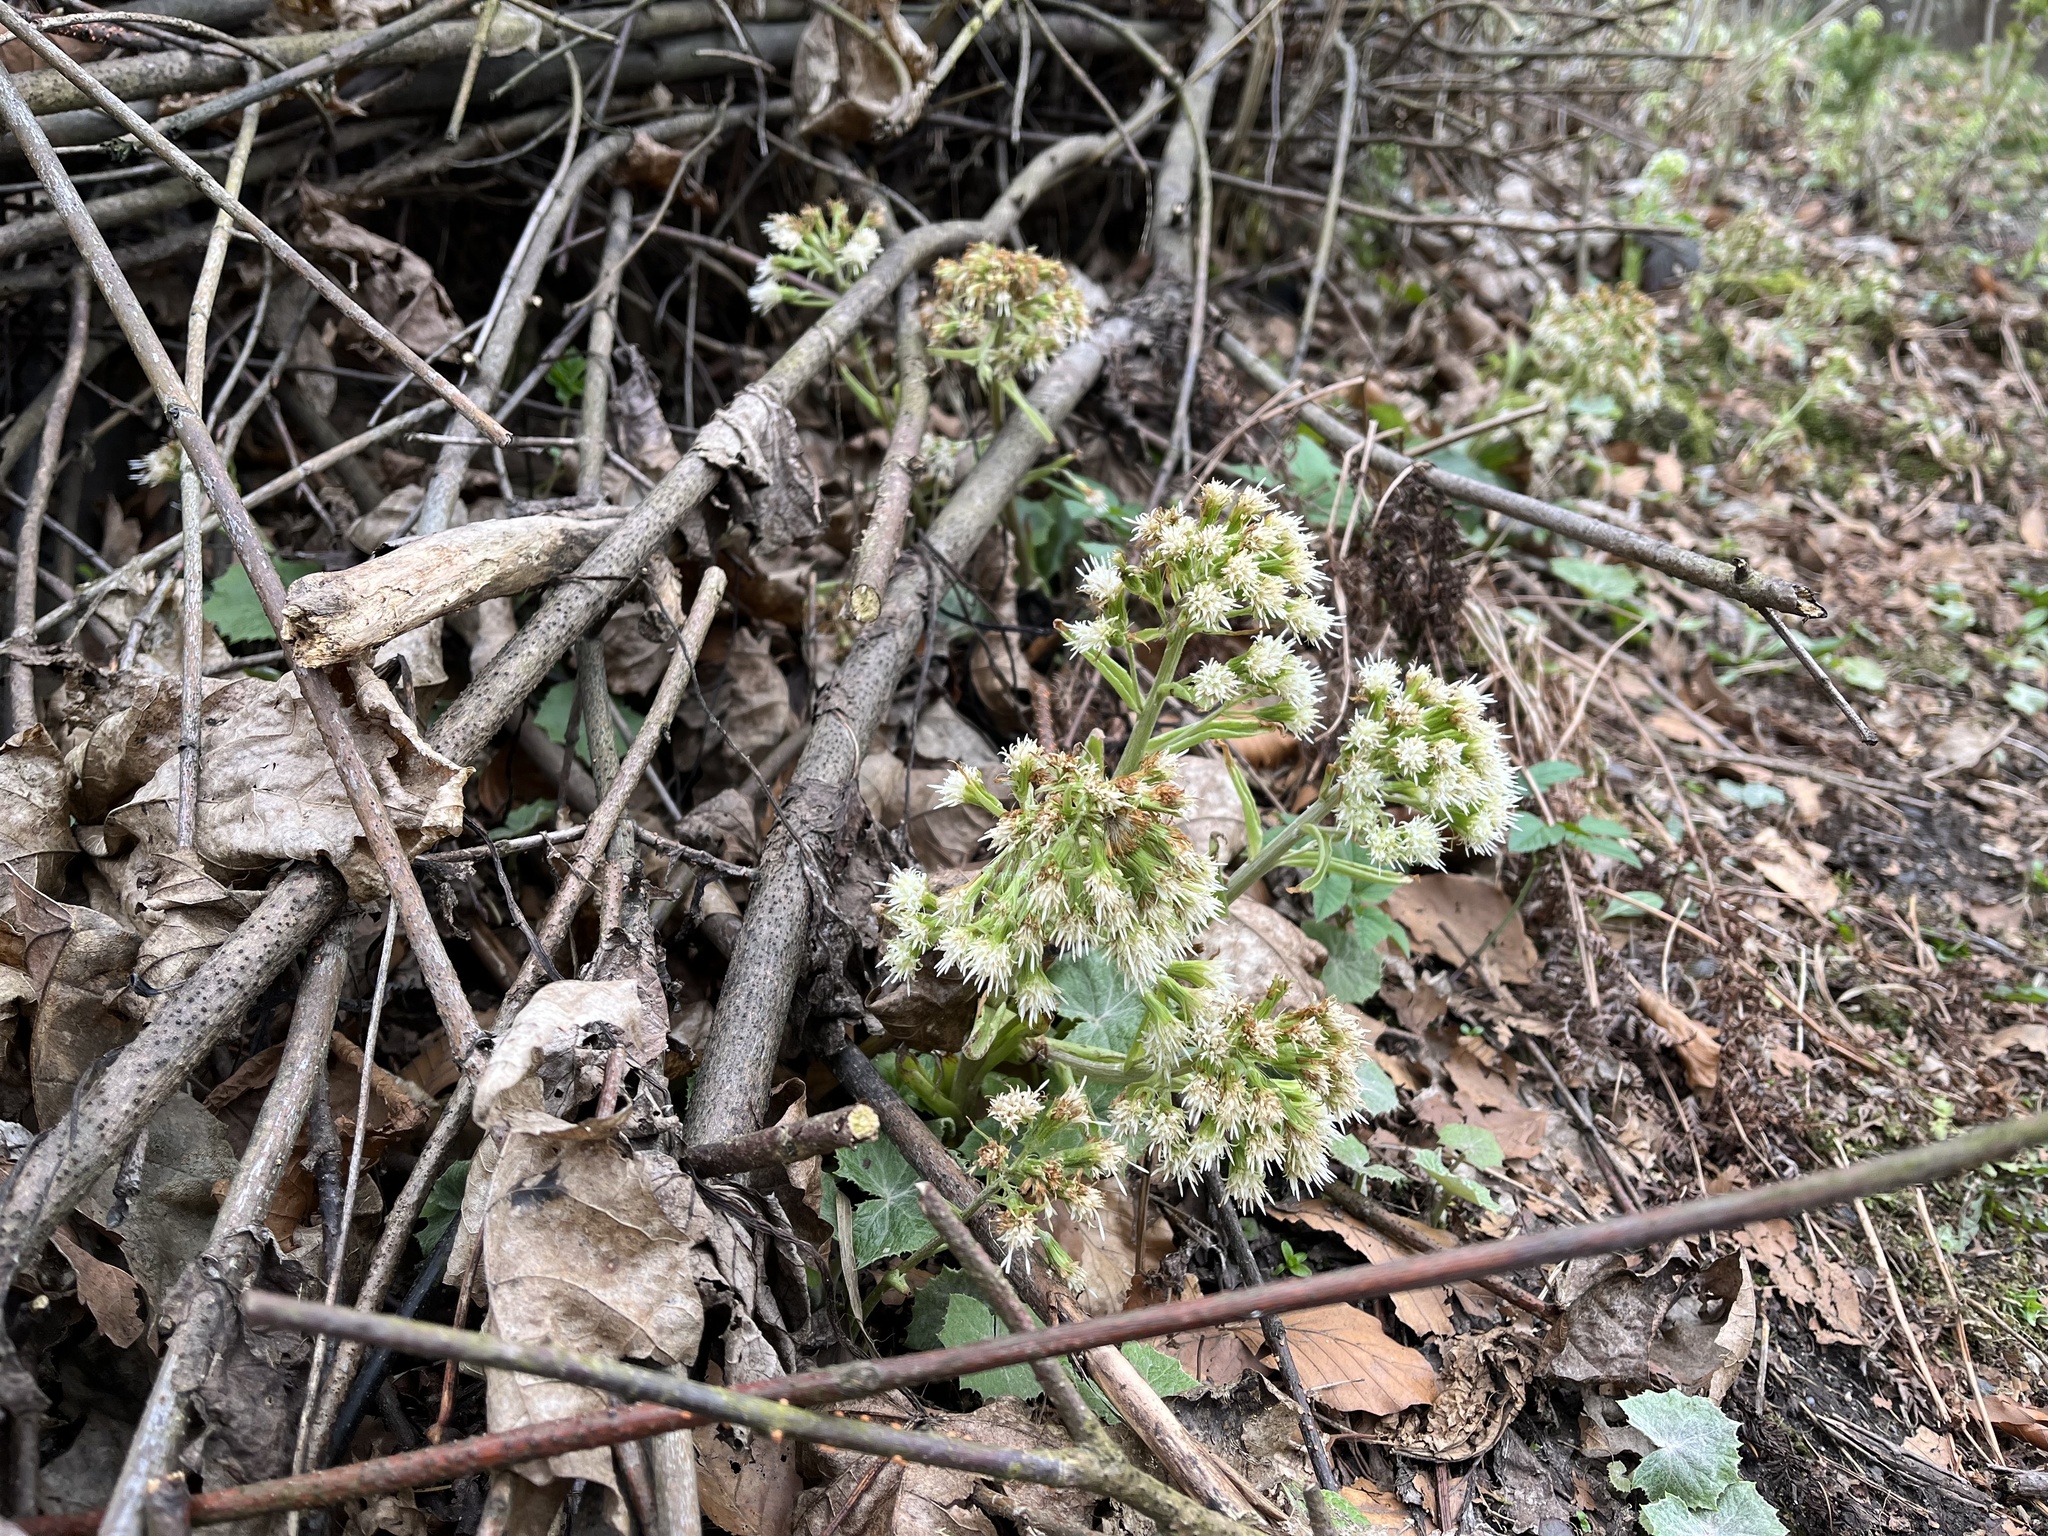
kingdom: Plantae
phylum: Tracheophyta
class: Magnoliopsida
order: Asterales
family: Asteraceae
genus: Petasites
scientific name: Petasites albus
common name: White butterbur
